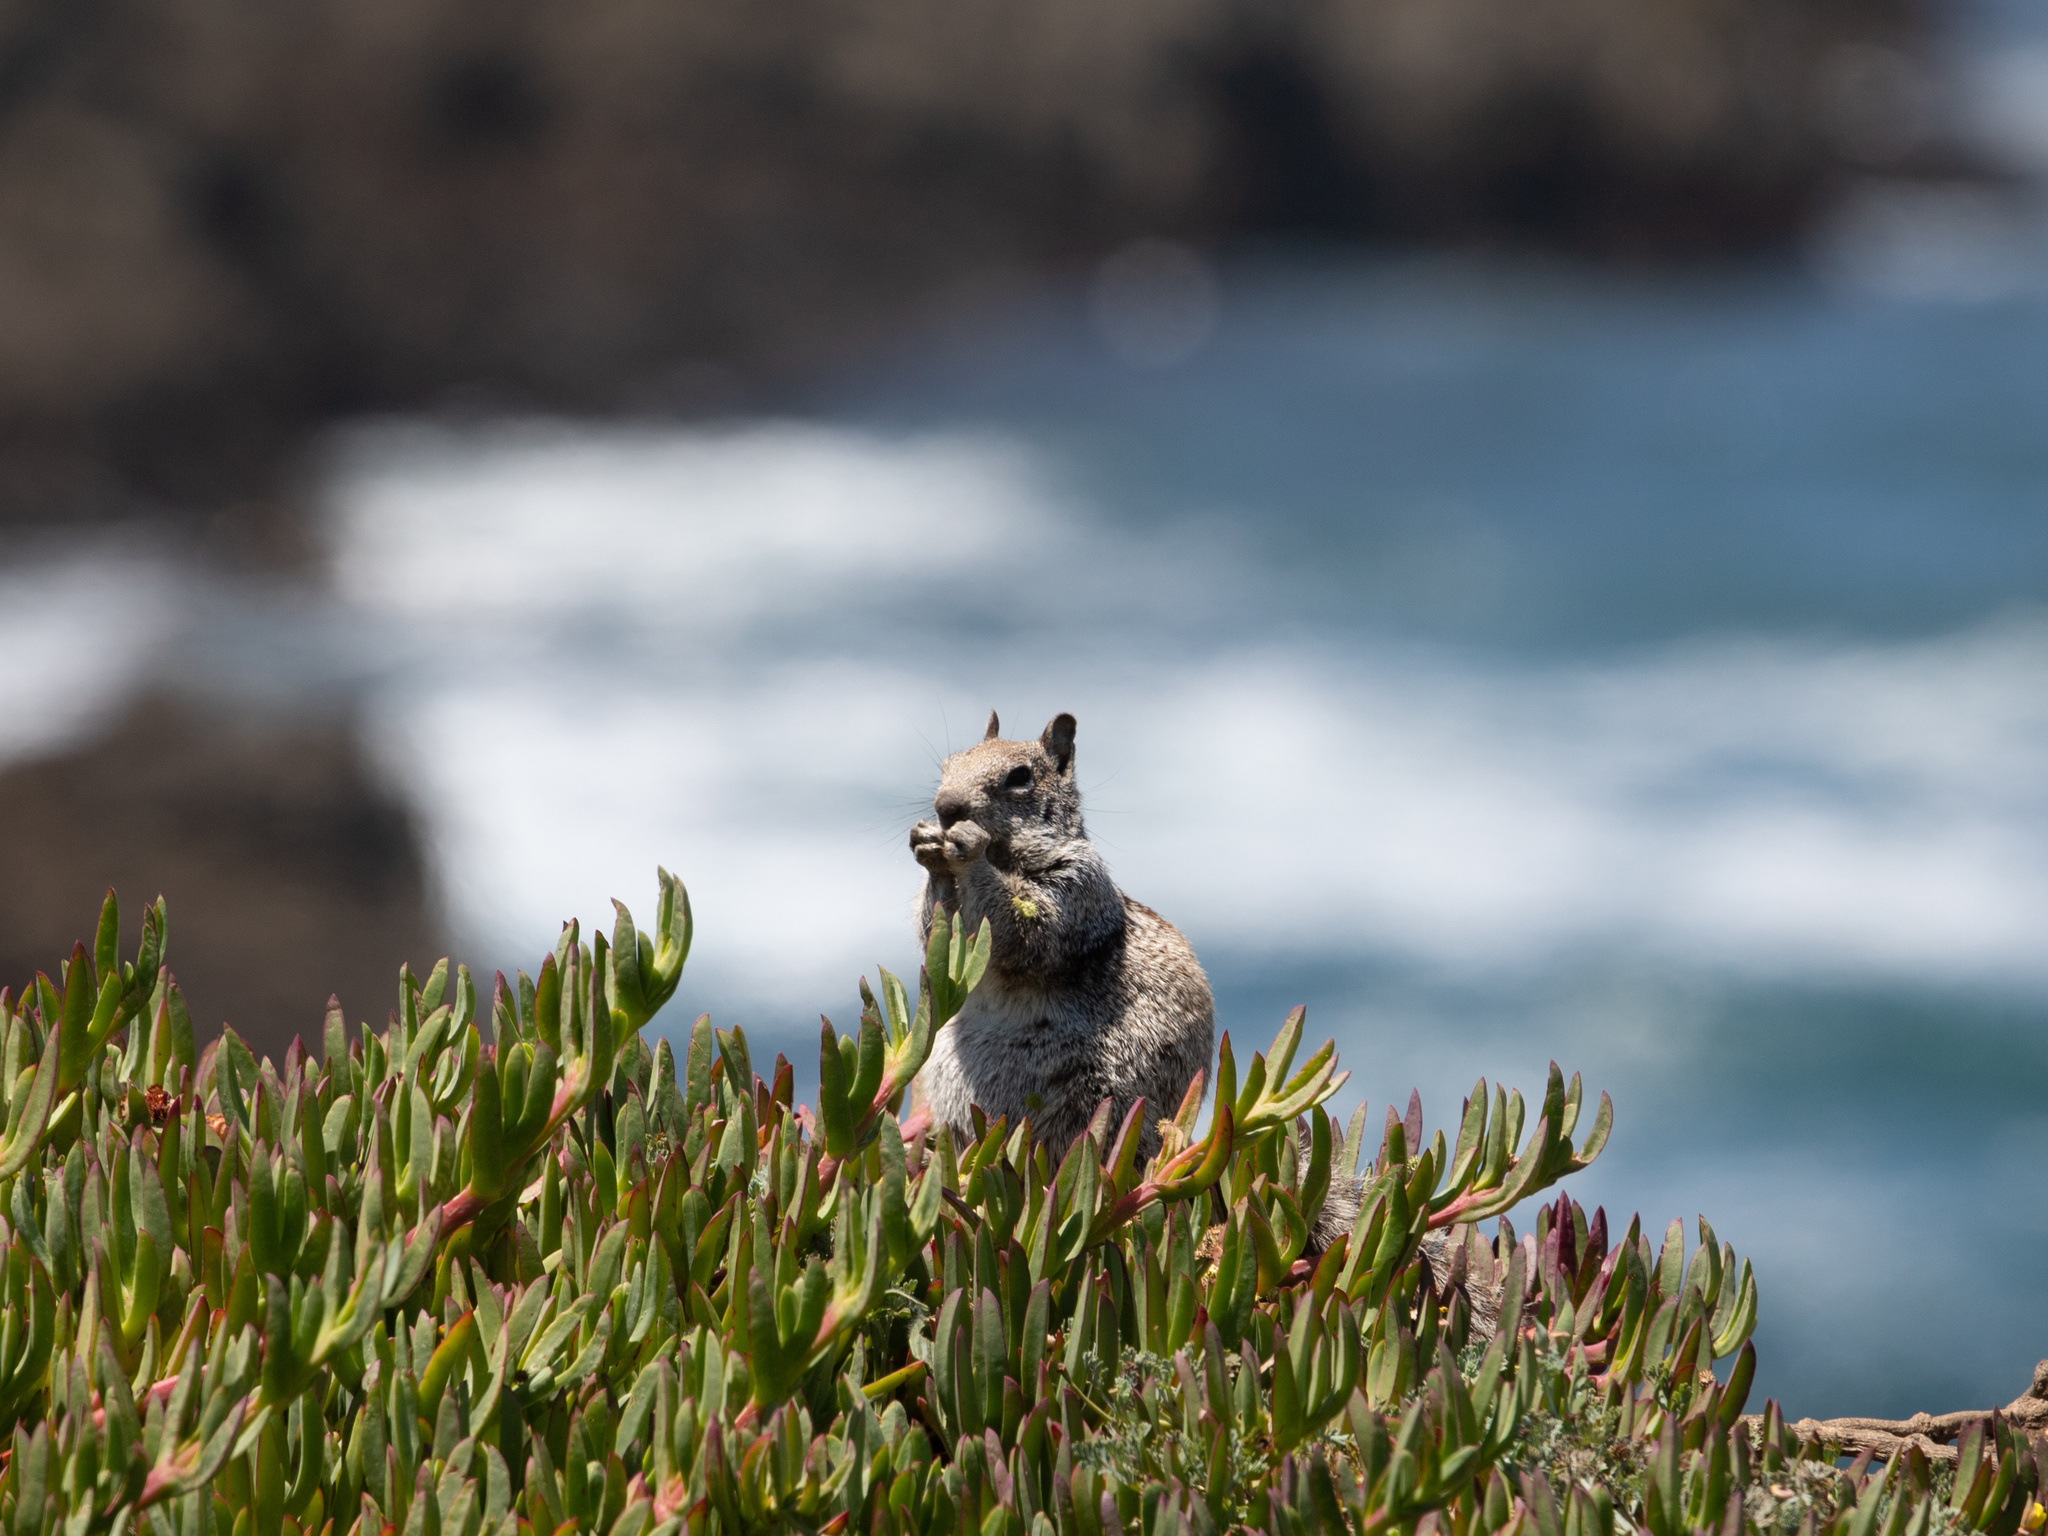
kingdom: Animalia
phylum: Chordata
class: Mammalia
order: Rodentia
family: Sciuridae
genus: Otospermophilus
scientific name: Otospermophilus beecheyi
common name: California ground squirrel
